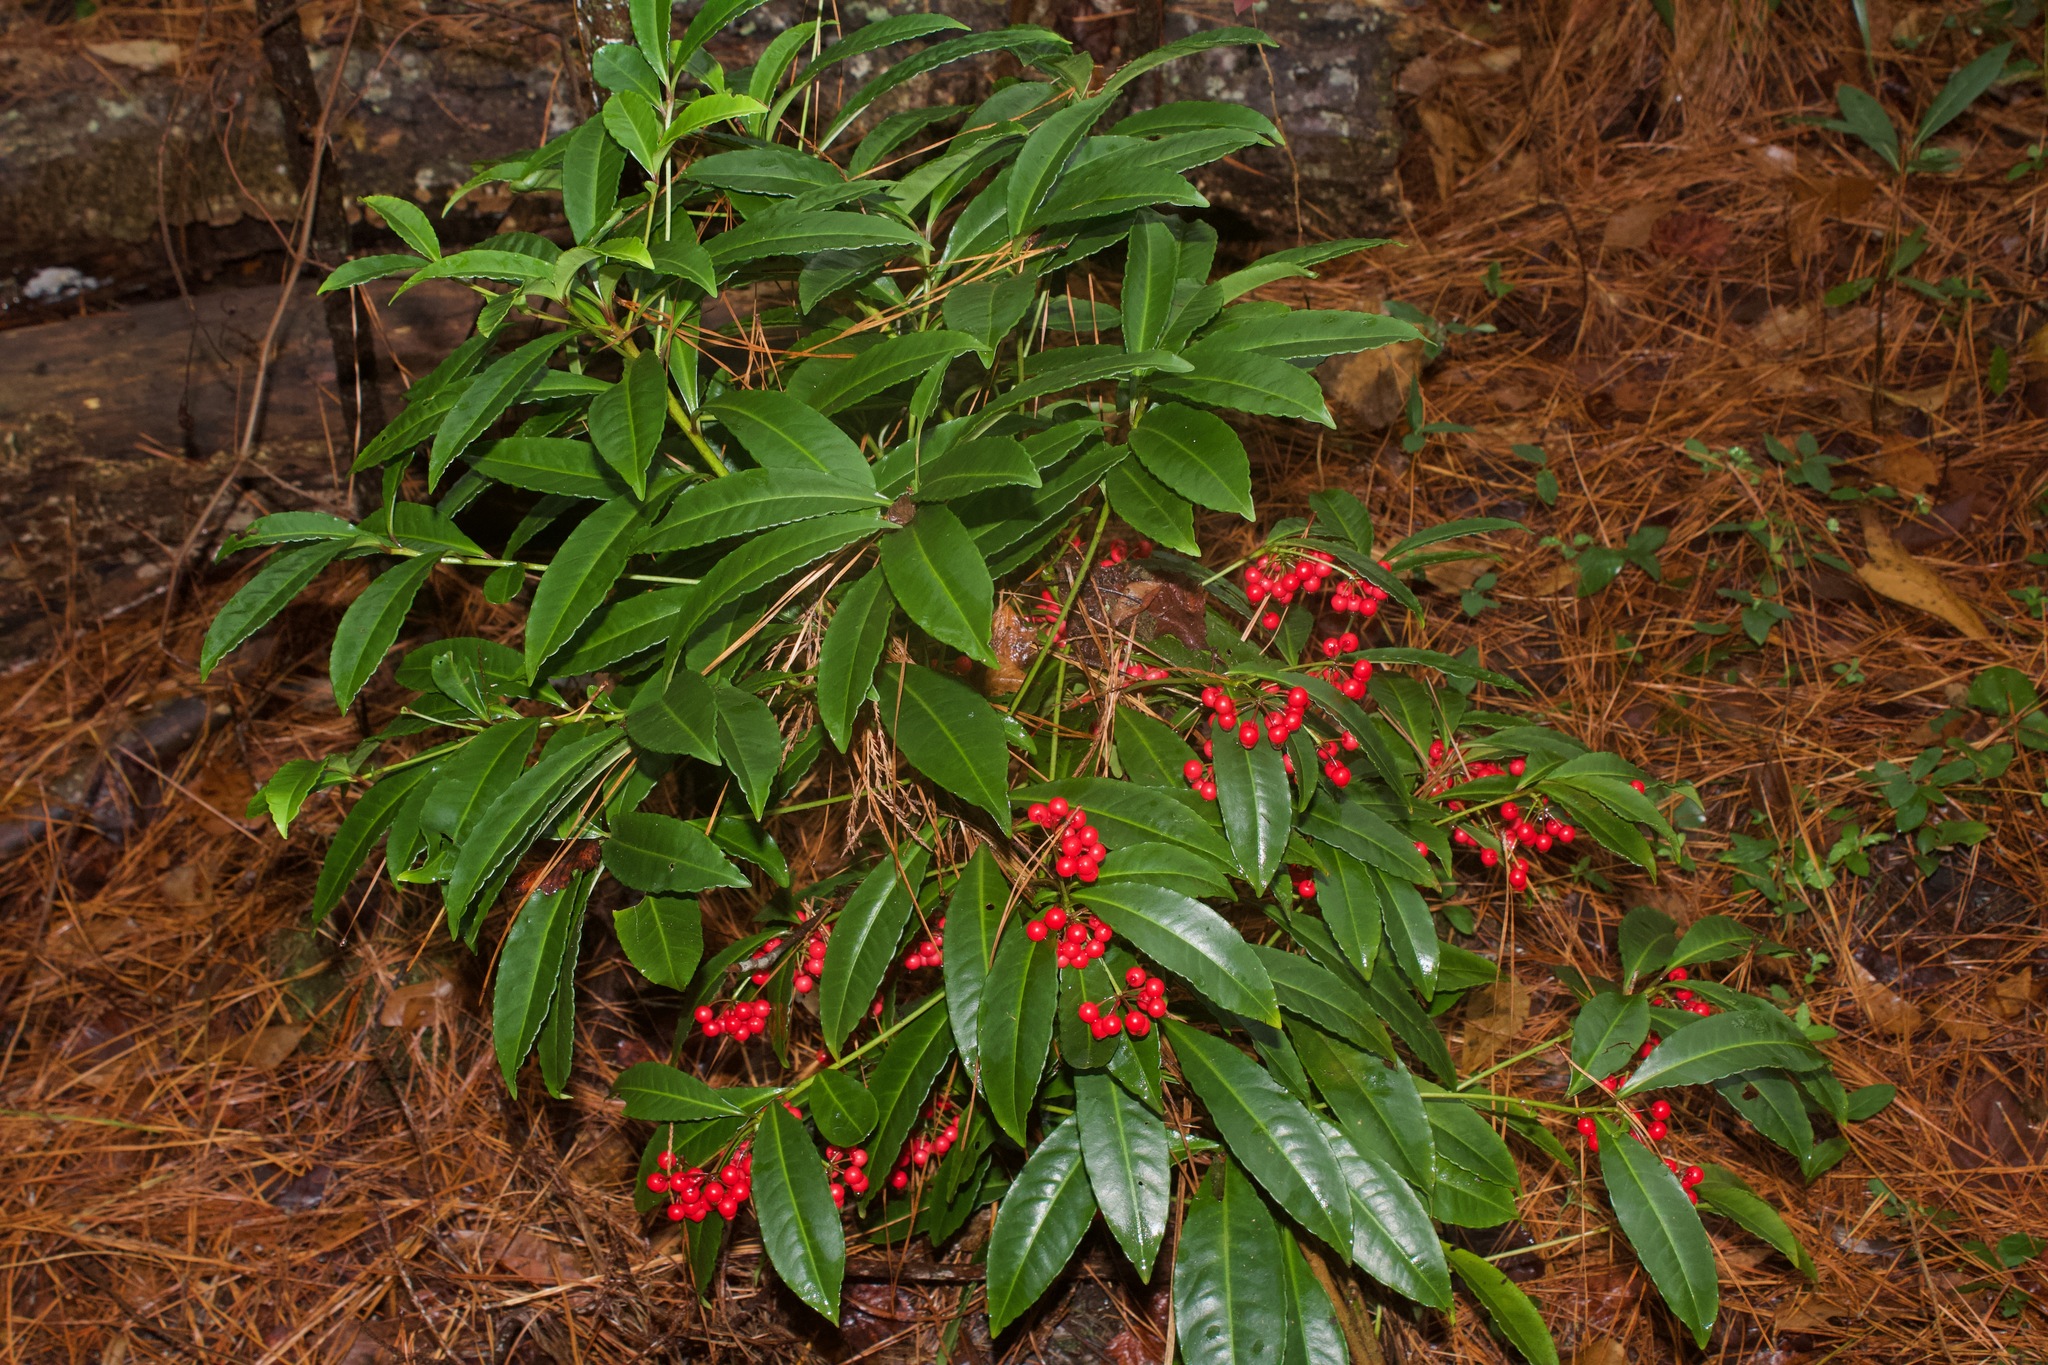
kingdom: Plantae
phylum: Tracheophyta
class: Magnoliopsida
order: Ericales
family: Primulaceae
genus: Ardisia
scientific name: Ardisia crenata
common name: Hen's eyes
